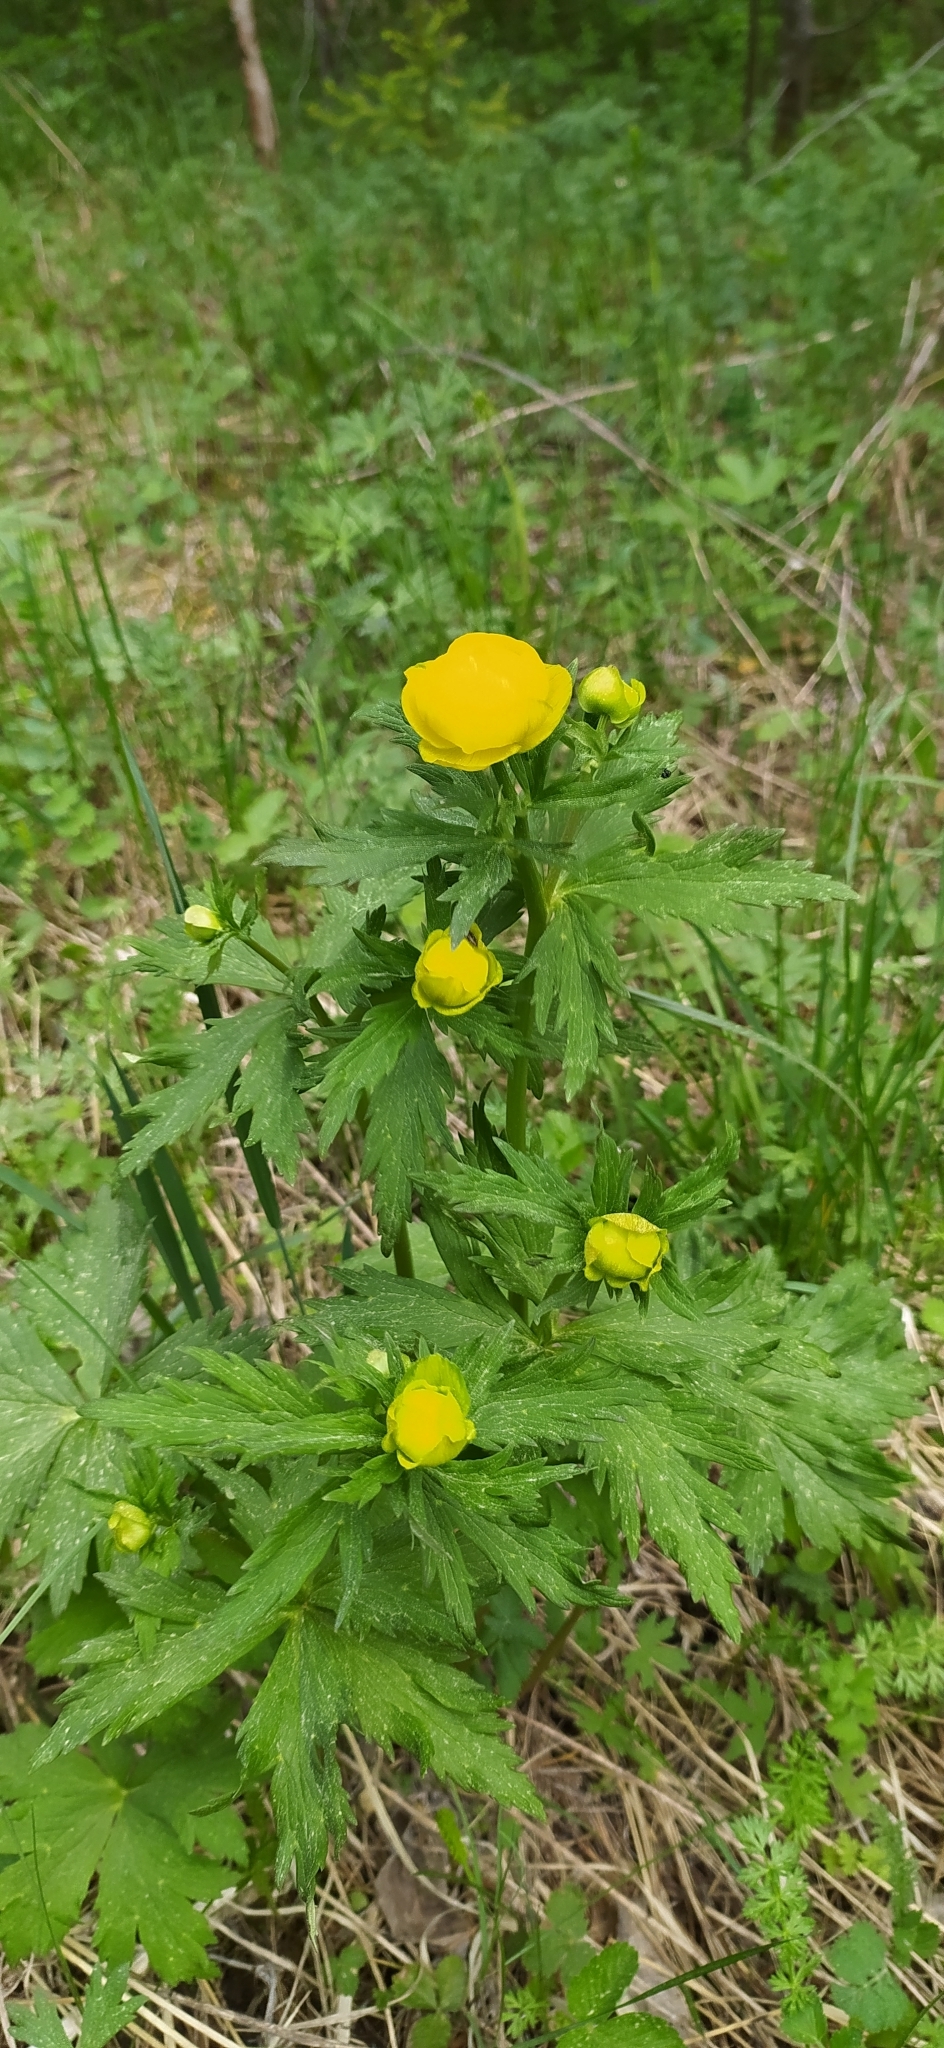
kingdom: Plantae
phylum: Tracheophyta
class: Magnoliopsida
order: Ranunculales
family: Ranunculaceae
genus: Trollius
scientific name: Trollius europaeus
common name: European globeflower
